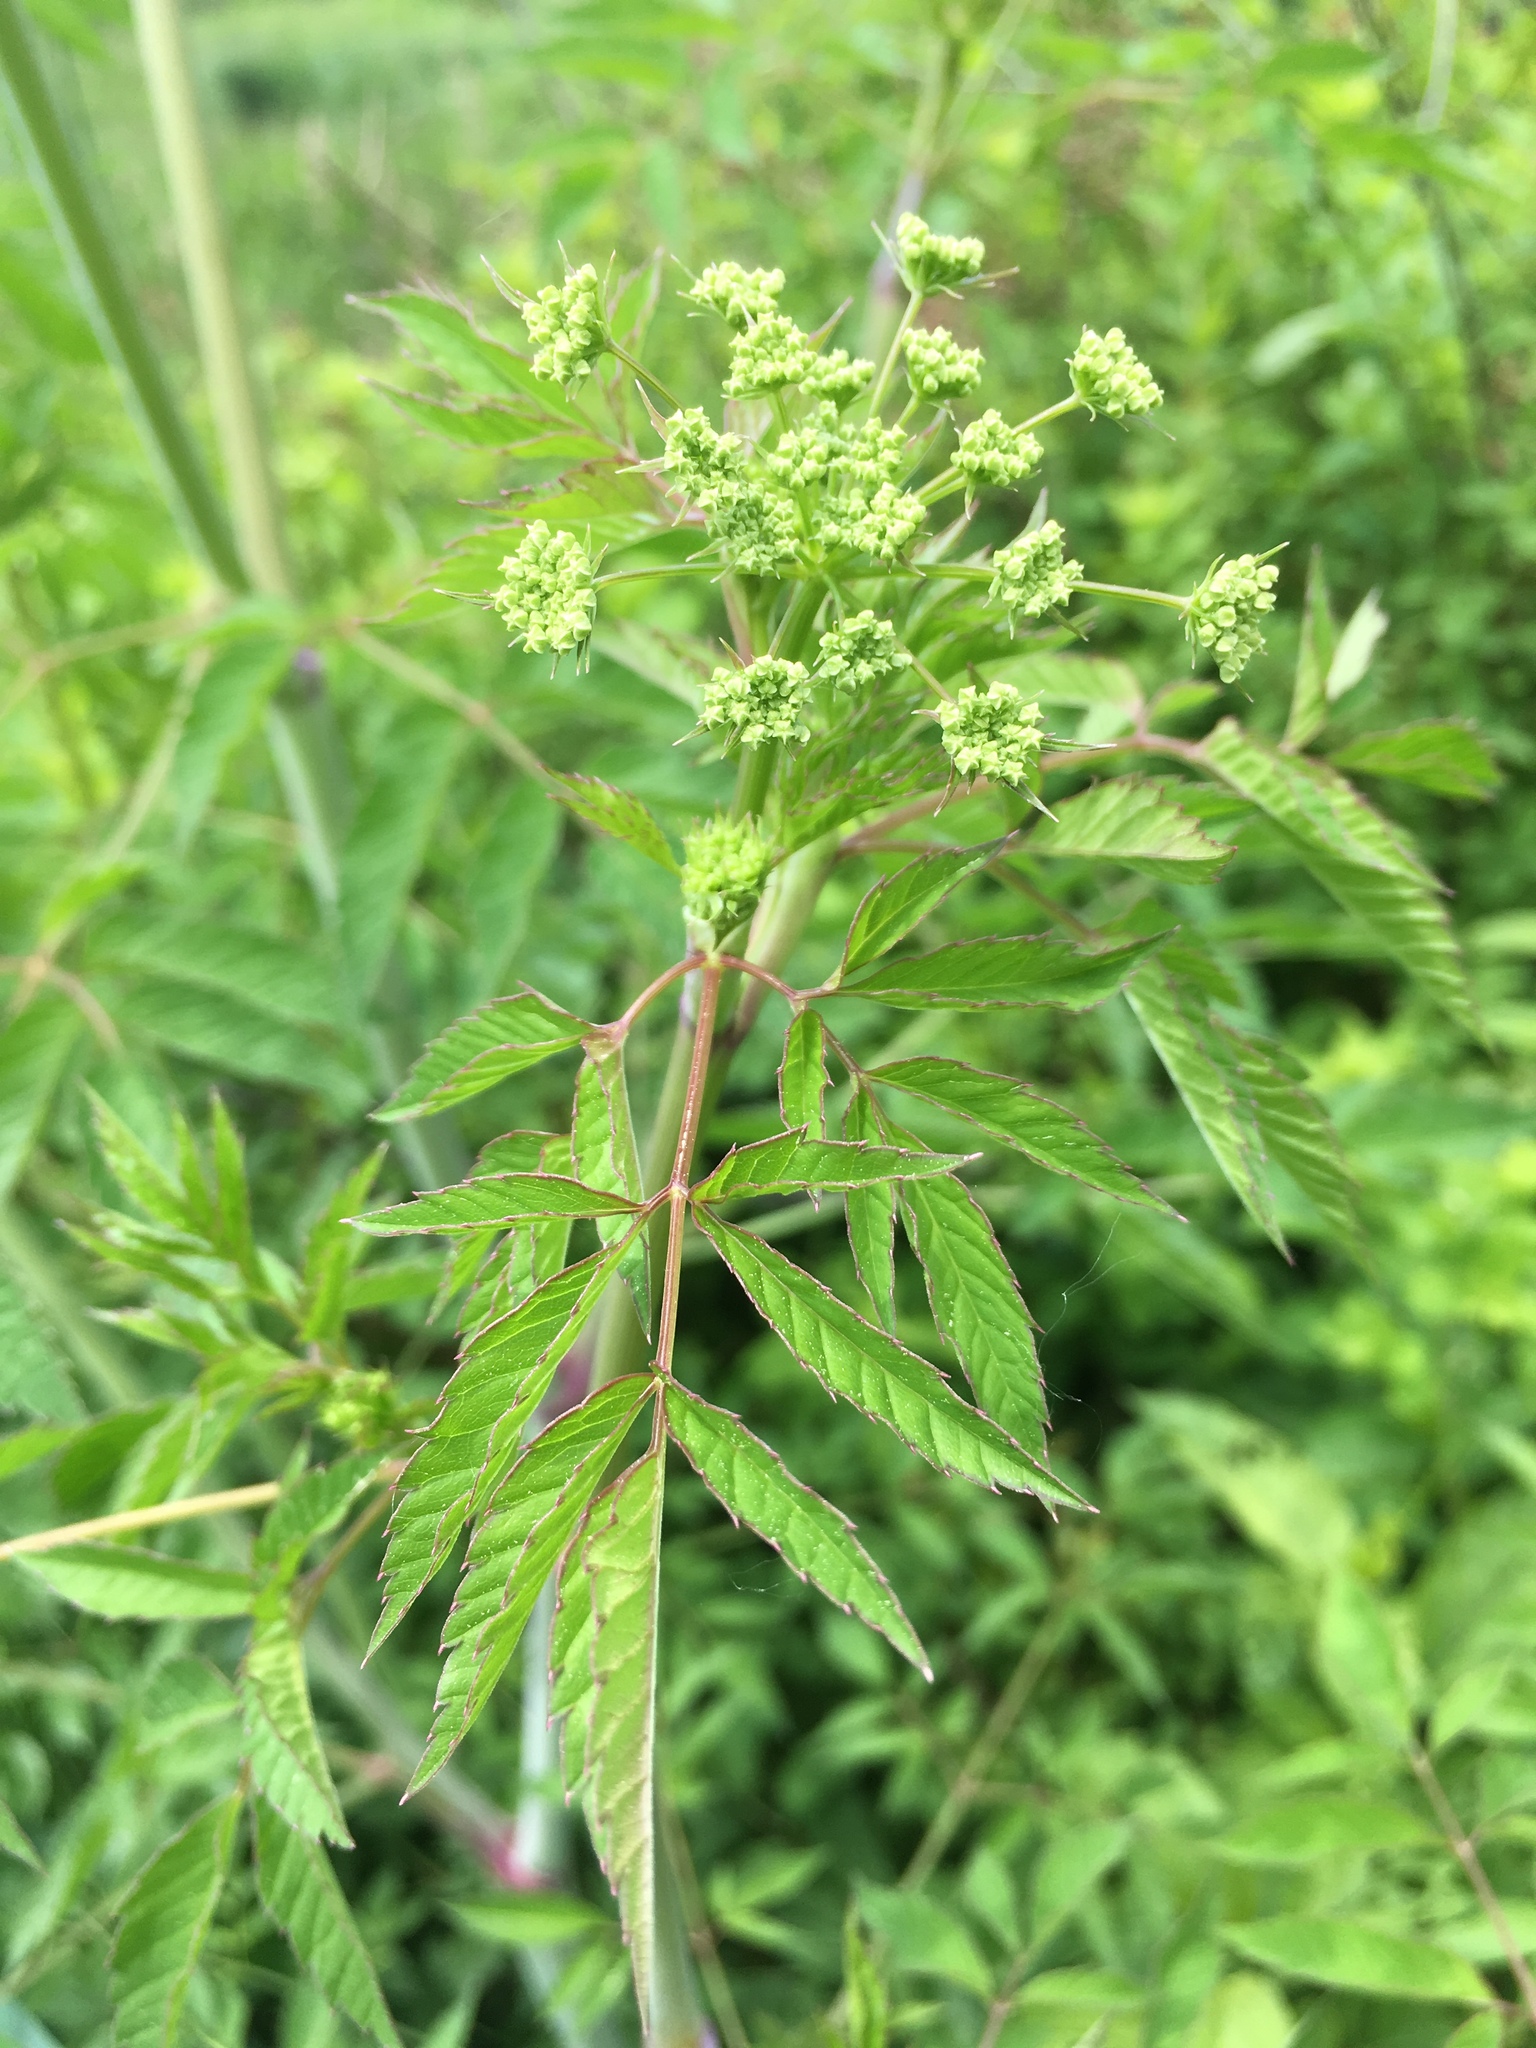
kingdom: Plantae
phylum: Tracheophyta
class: Magnoliopsida
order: Apiales
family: Apiaceae
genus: Cicuta
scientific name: Cicuta maculata
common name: Spotted cowbane
